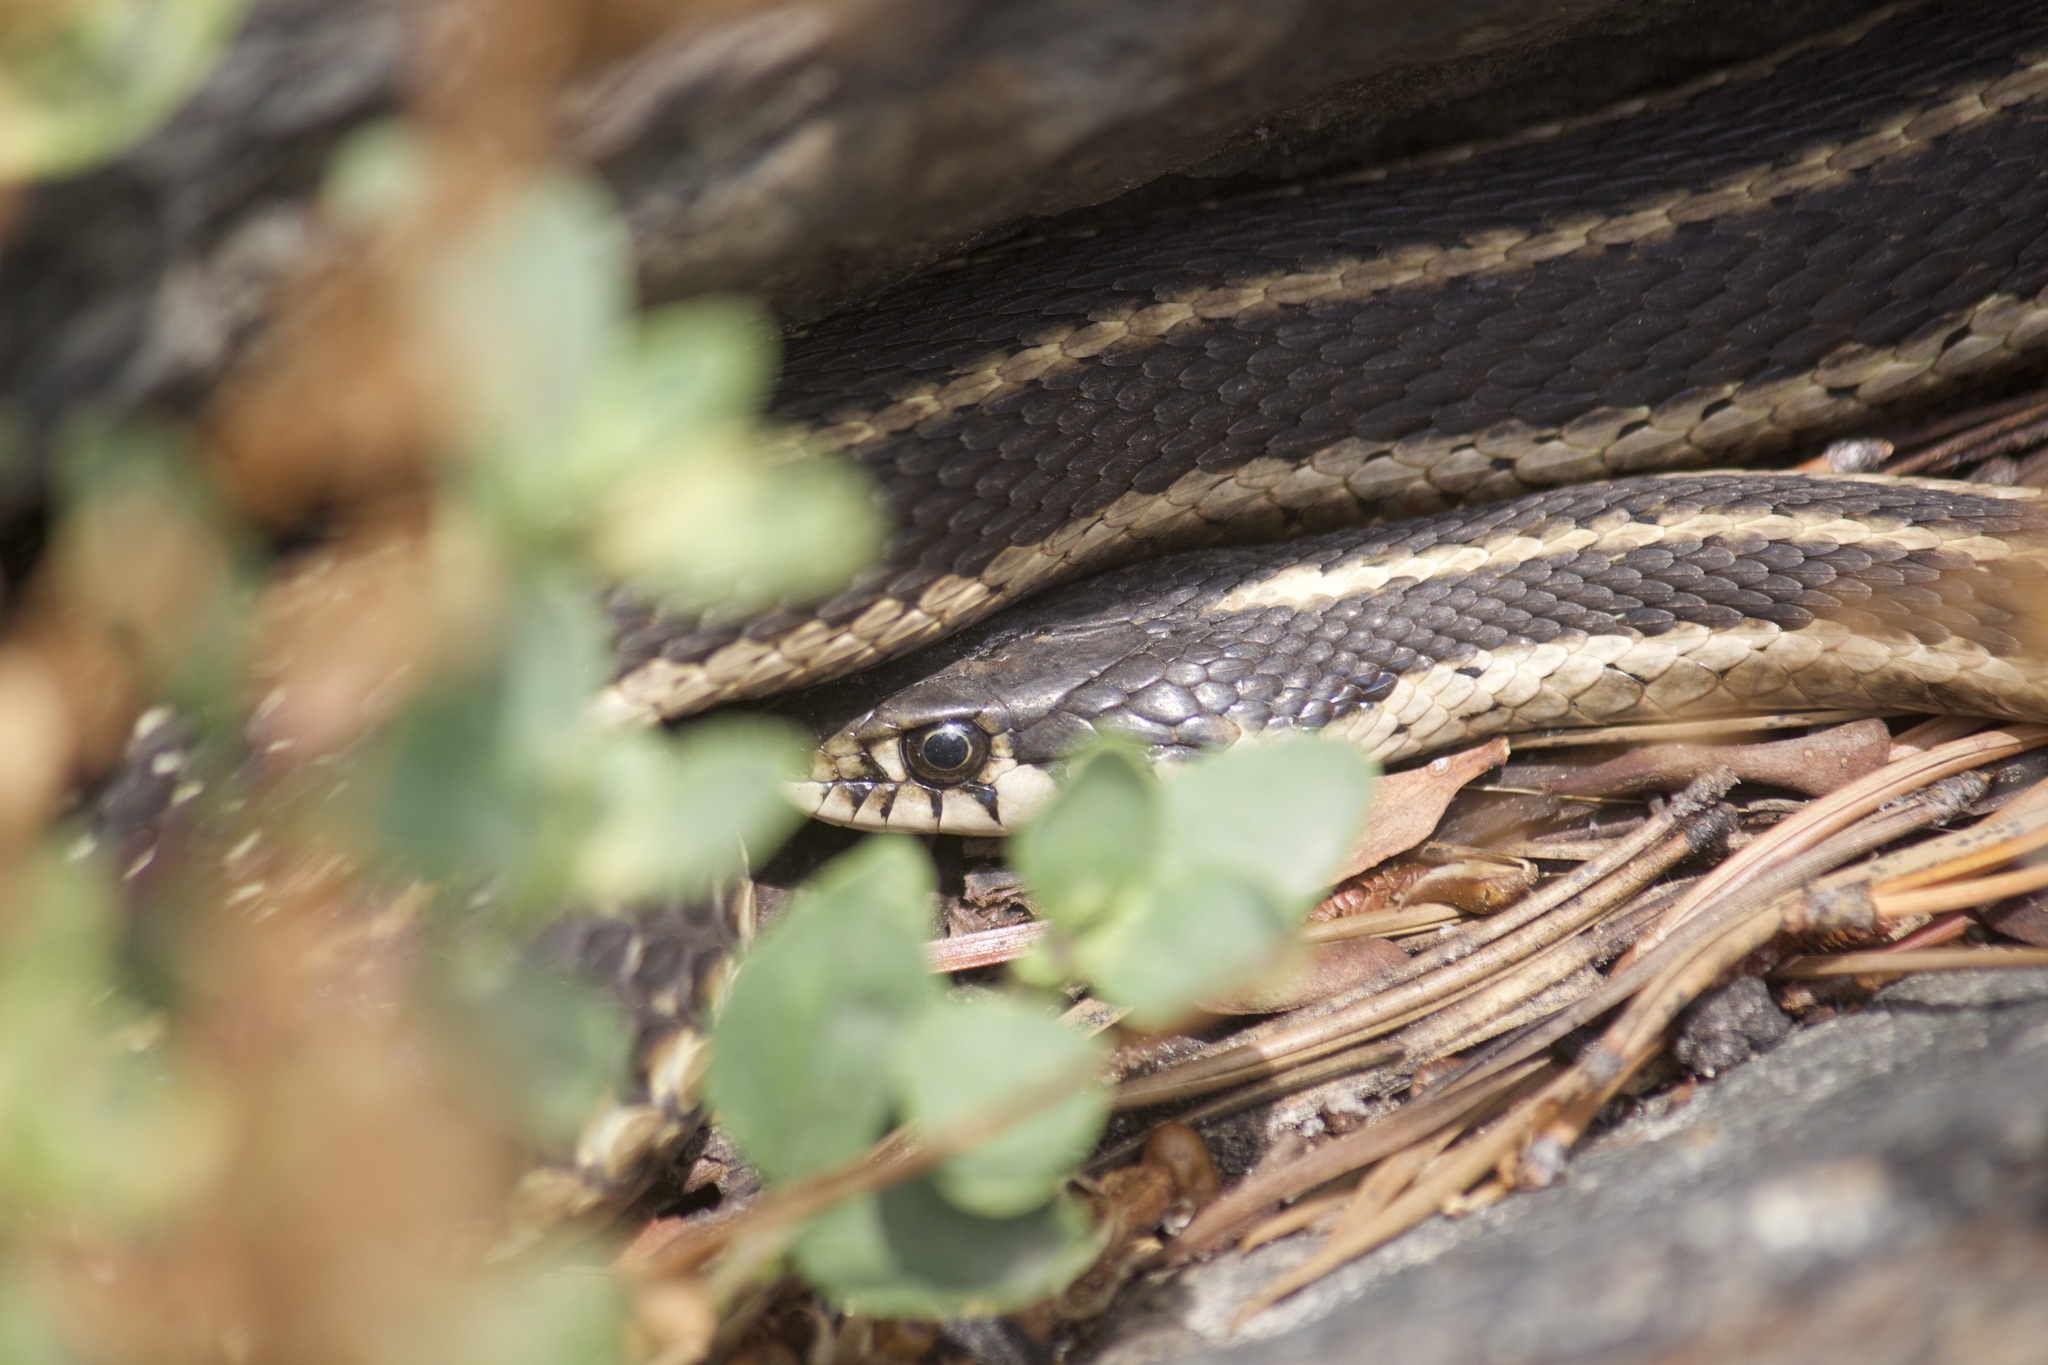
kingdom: Animalia
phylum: Chordata
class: Squamata
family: Colubridae
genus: Thamnophis
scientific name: Thamnophis elegans
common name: Western terrestrial garter snake
